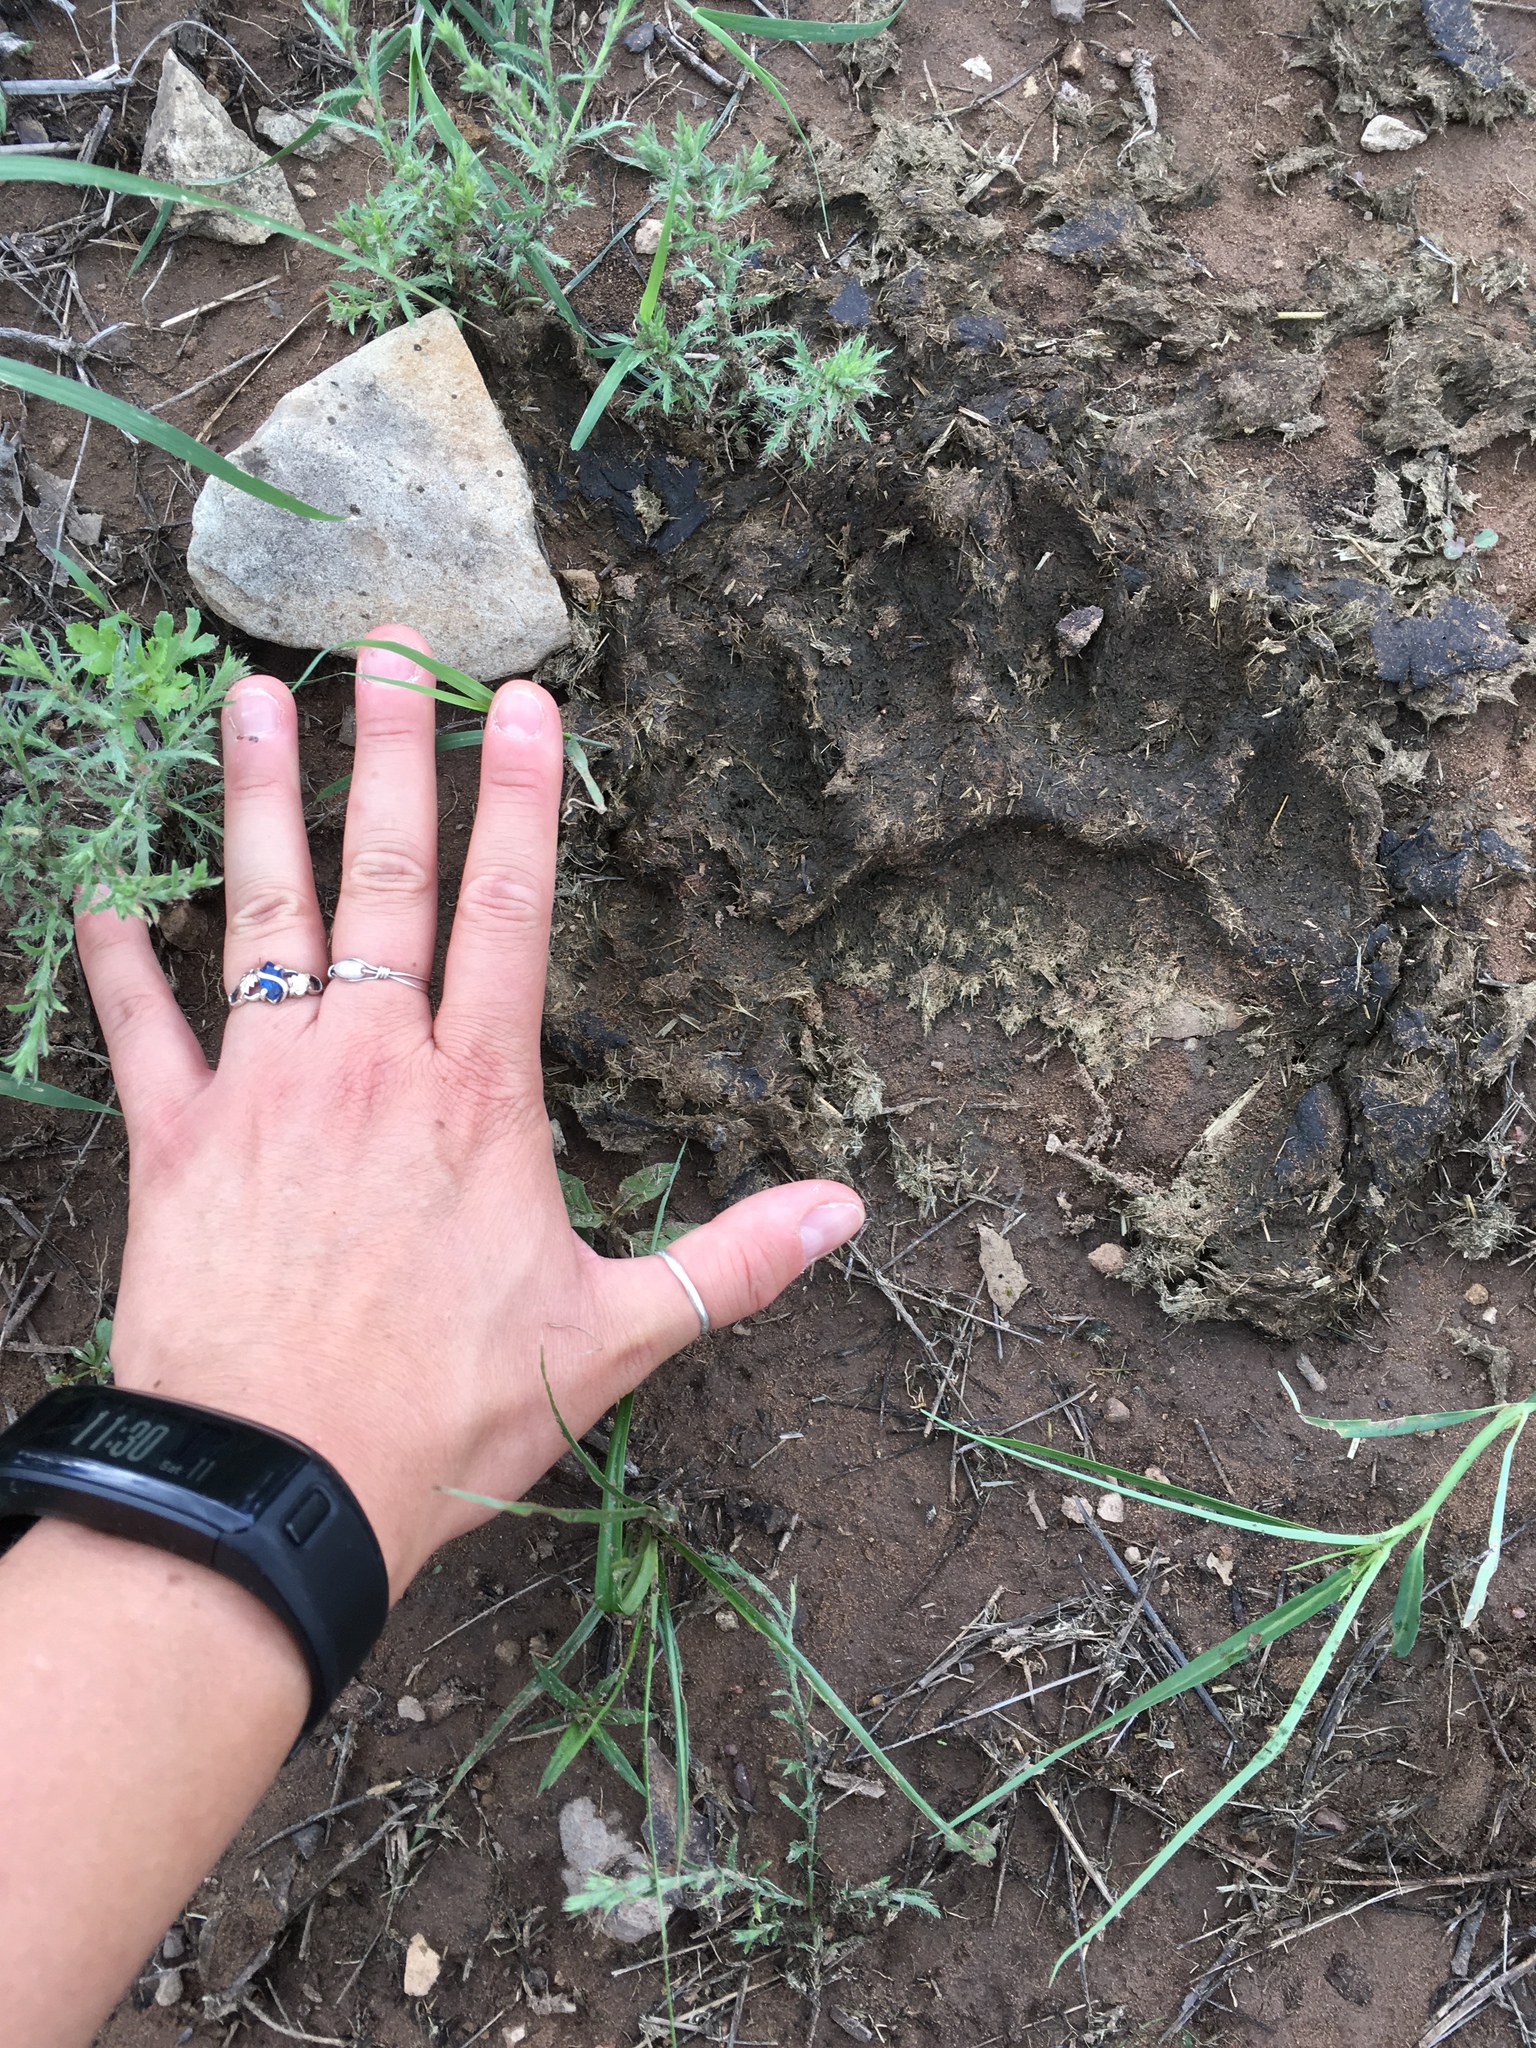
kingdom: Animalia
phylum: Chordata
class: Mammalia
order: Carnivora
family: Ursidae
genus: Ursus
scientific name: Ursus americanus
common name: American black bear
